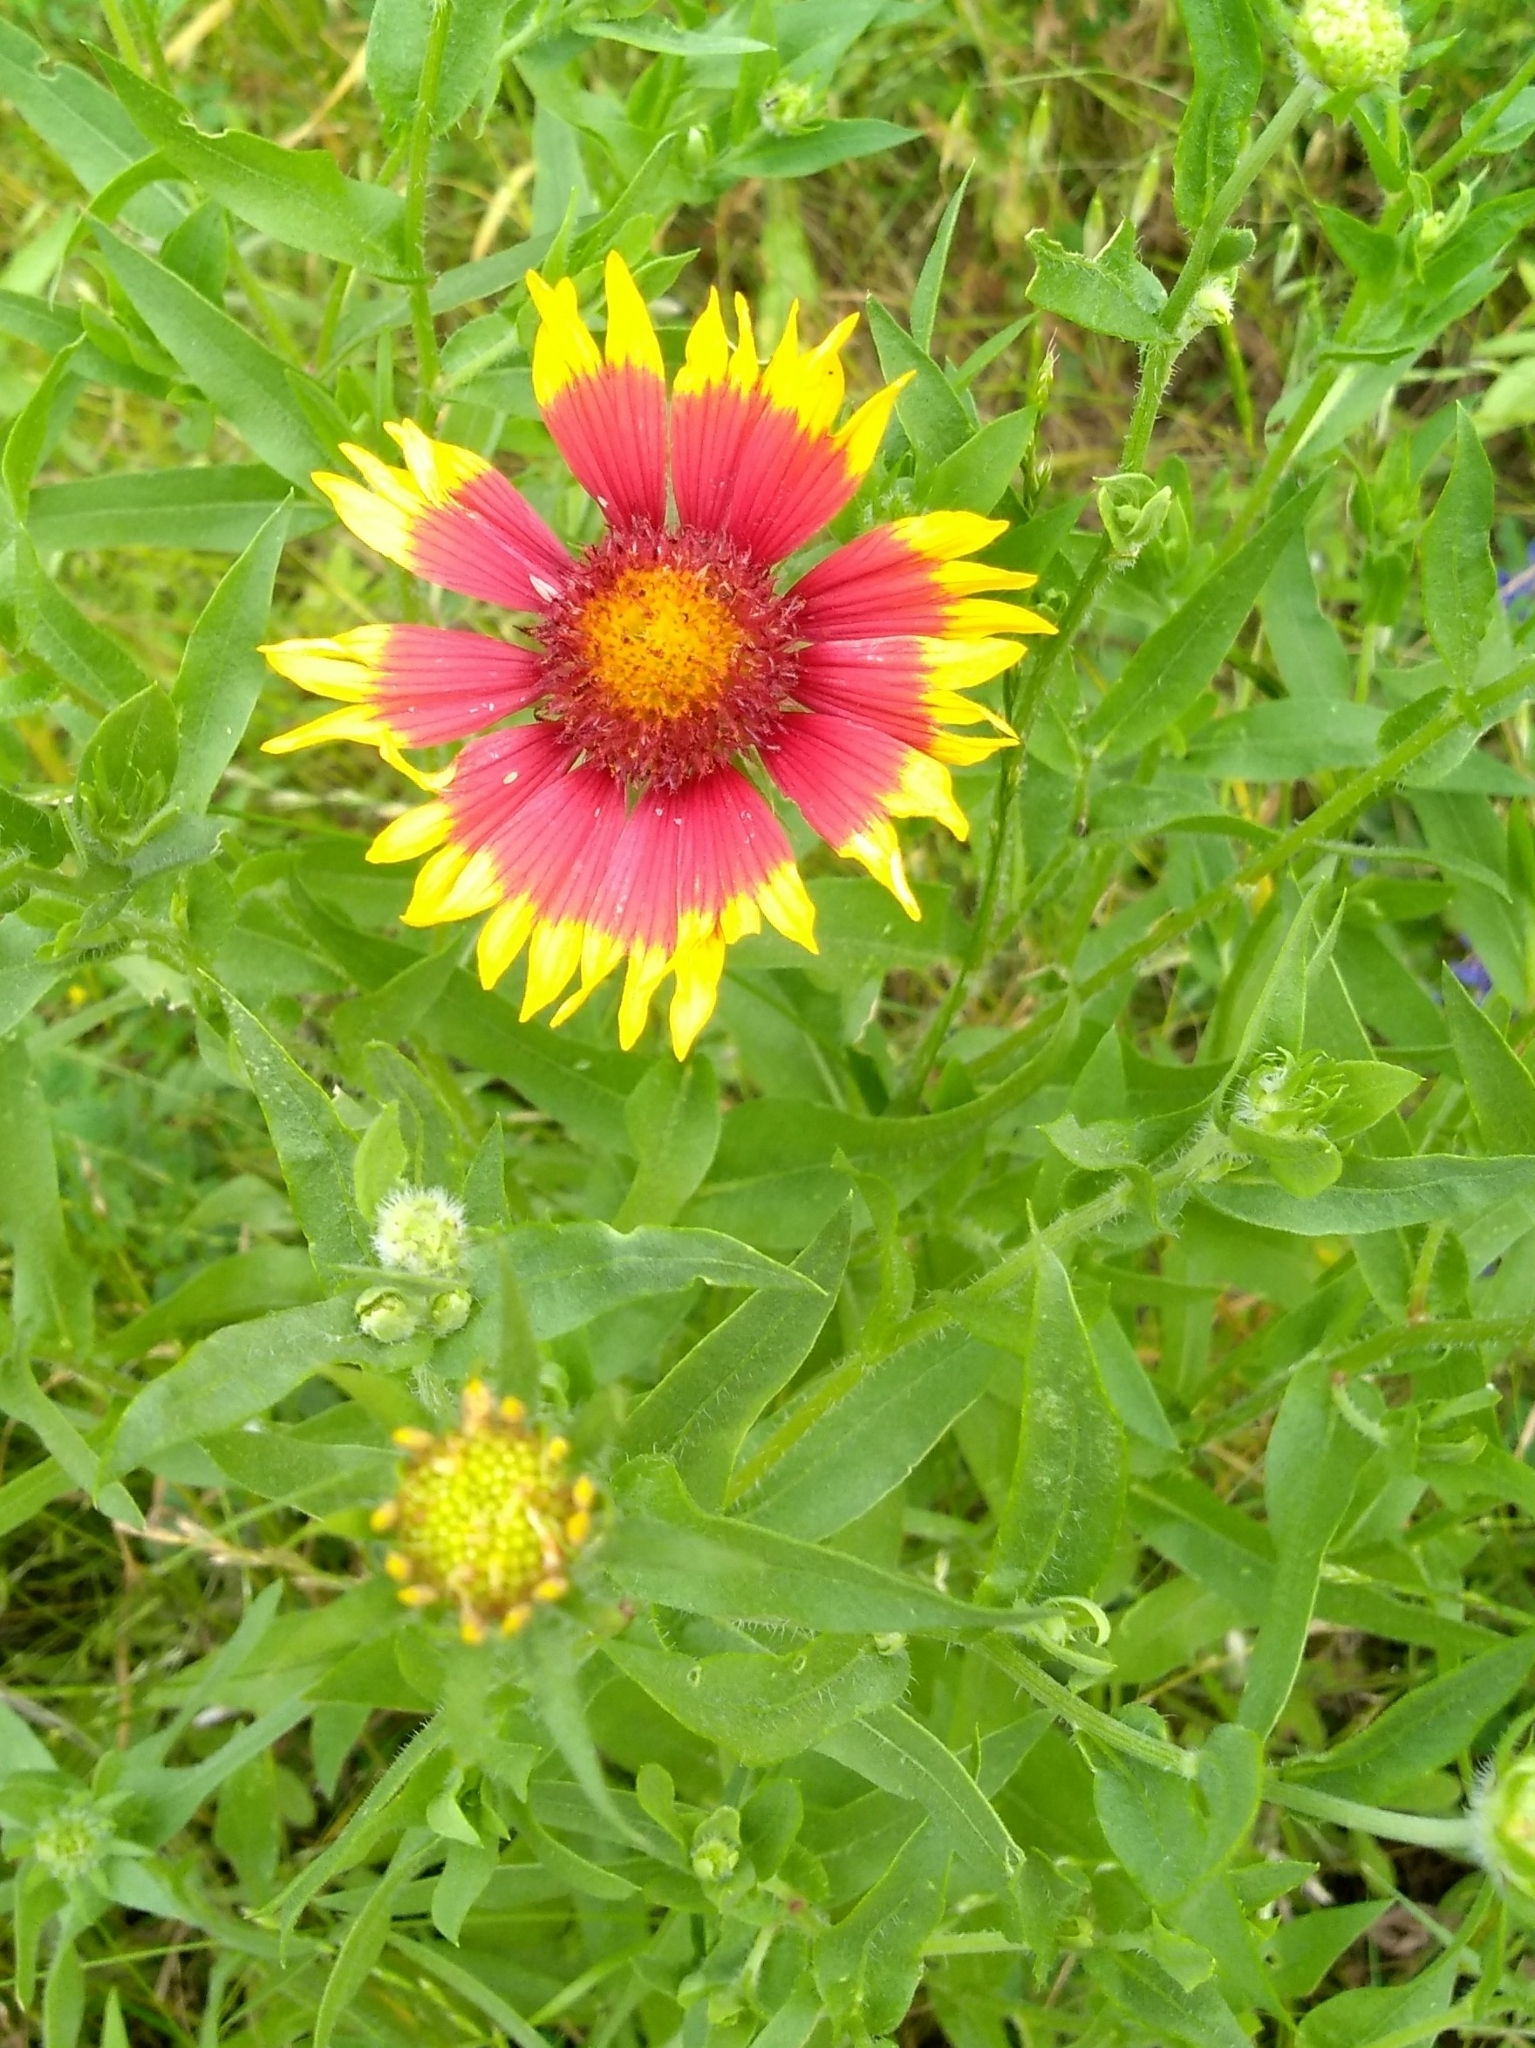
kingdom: Plantae
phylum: Tracheophyta
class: Magnoliopsida
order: Asterales
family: Asteraceae
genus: Gaillardia
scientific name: Gaillardia pulchella
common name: Firewheel
